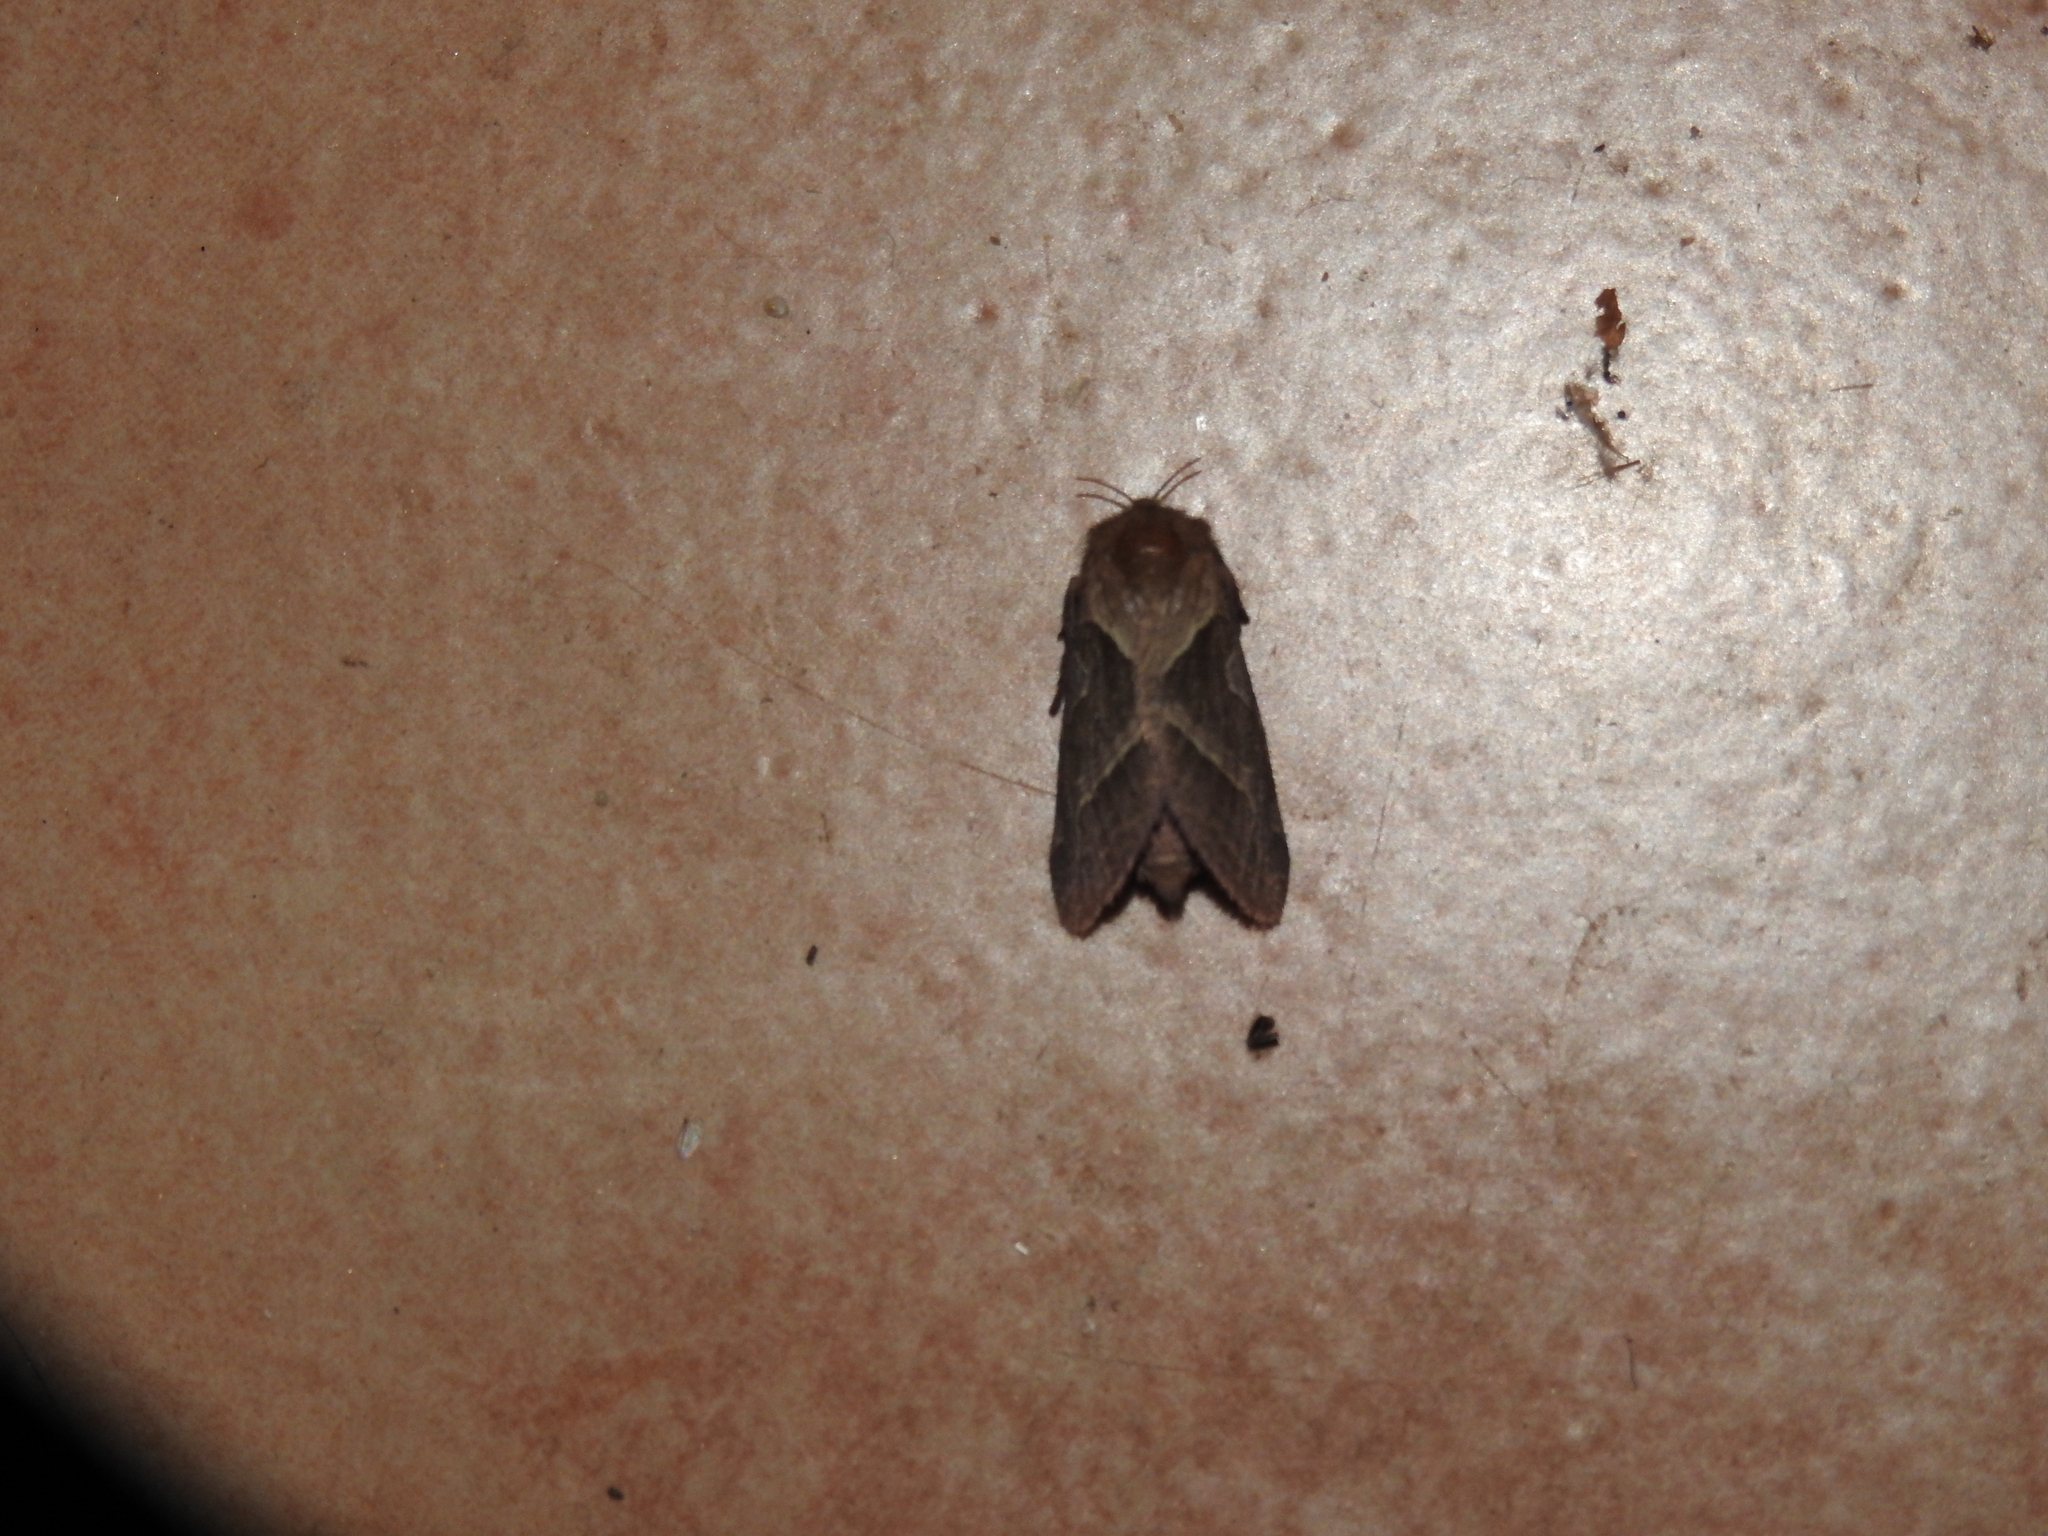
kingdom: Animalia
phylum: Arthropoda
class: Insecta
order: Lepidoptera
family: Hepialidae
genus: Triodia
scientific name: Triodia sylvina
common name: Orange swift
